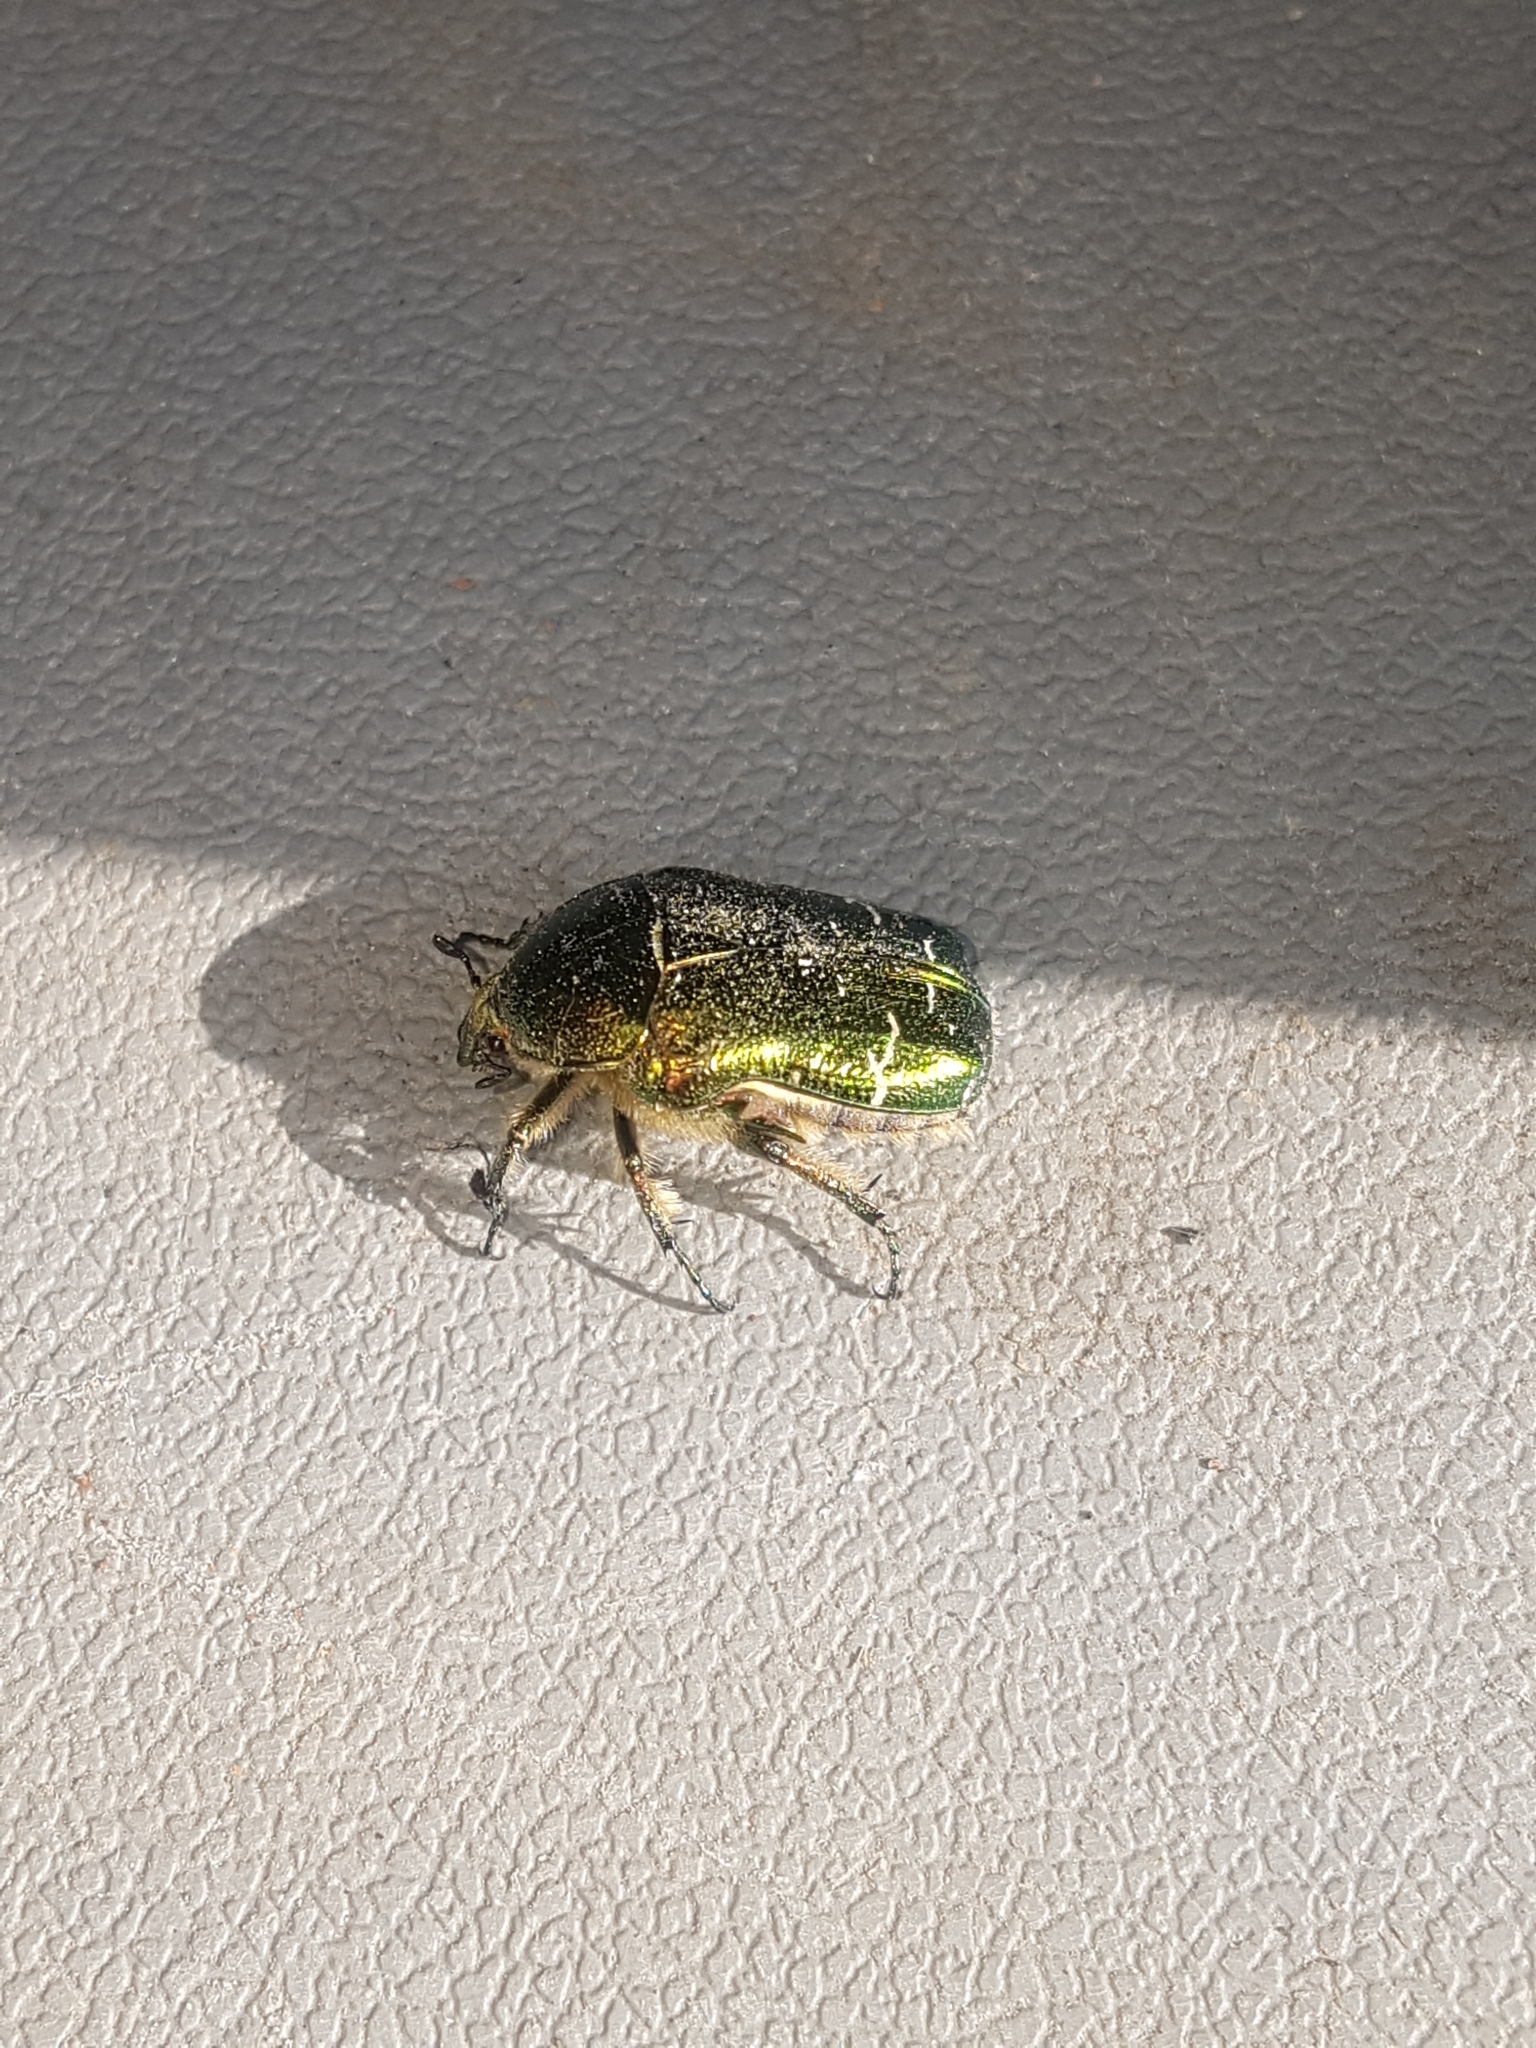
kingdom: Animalia
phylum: Arthropoda
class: Insecta
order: Coleoptera
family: Scarabaeidae
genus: Cetonia
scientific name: Cetonia aurata
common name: Rose chafer
